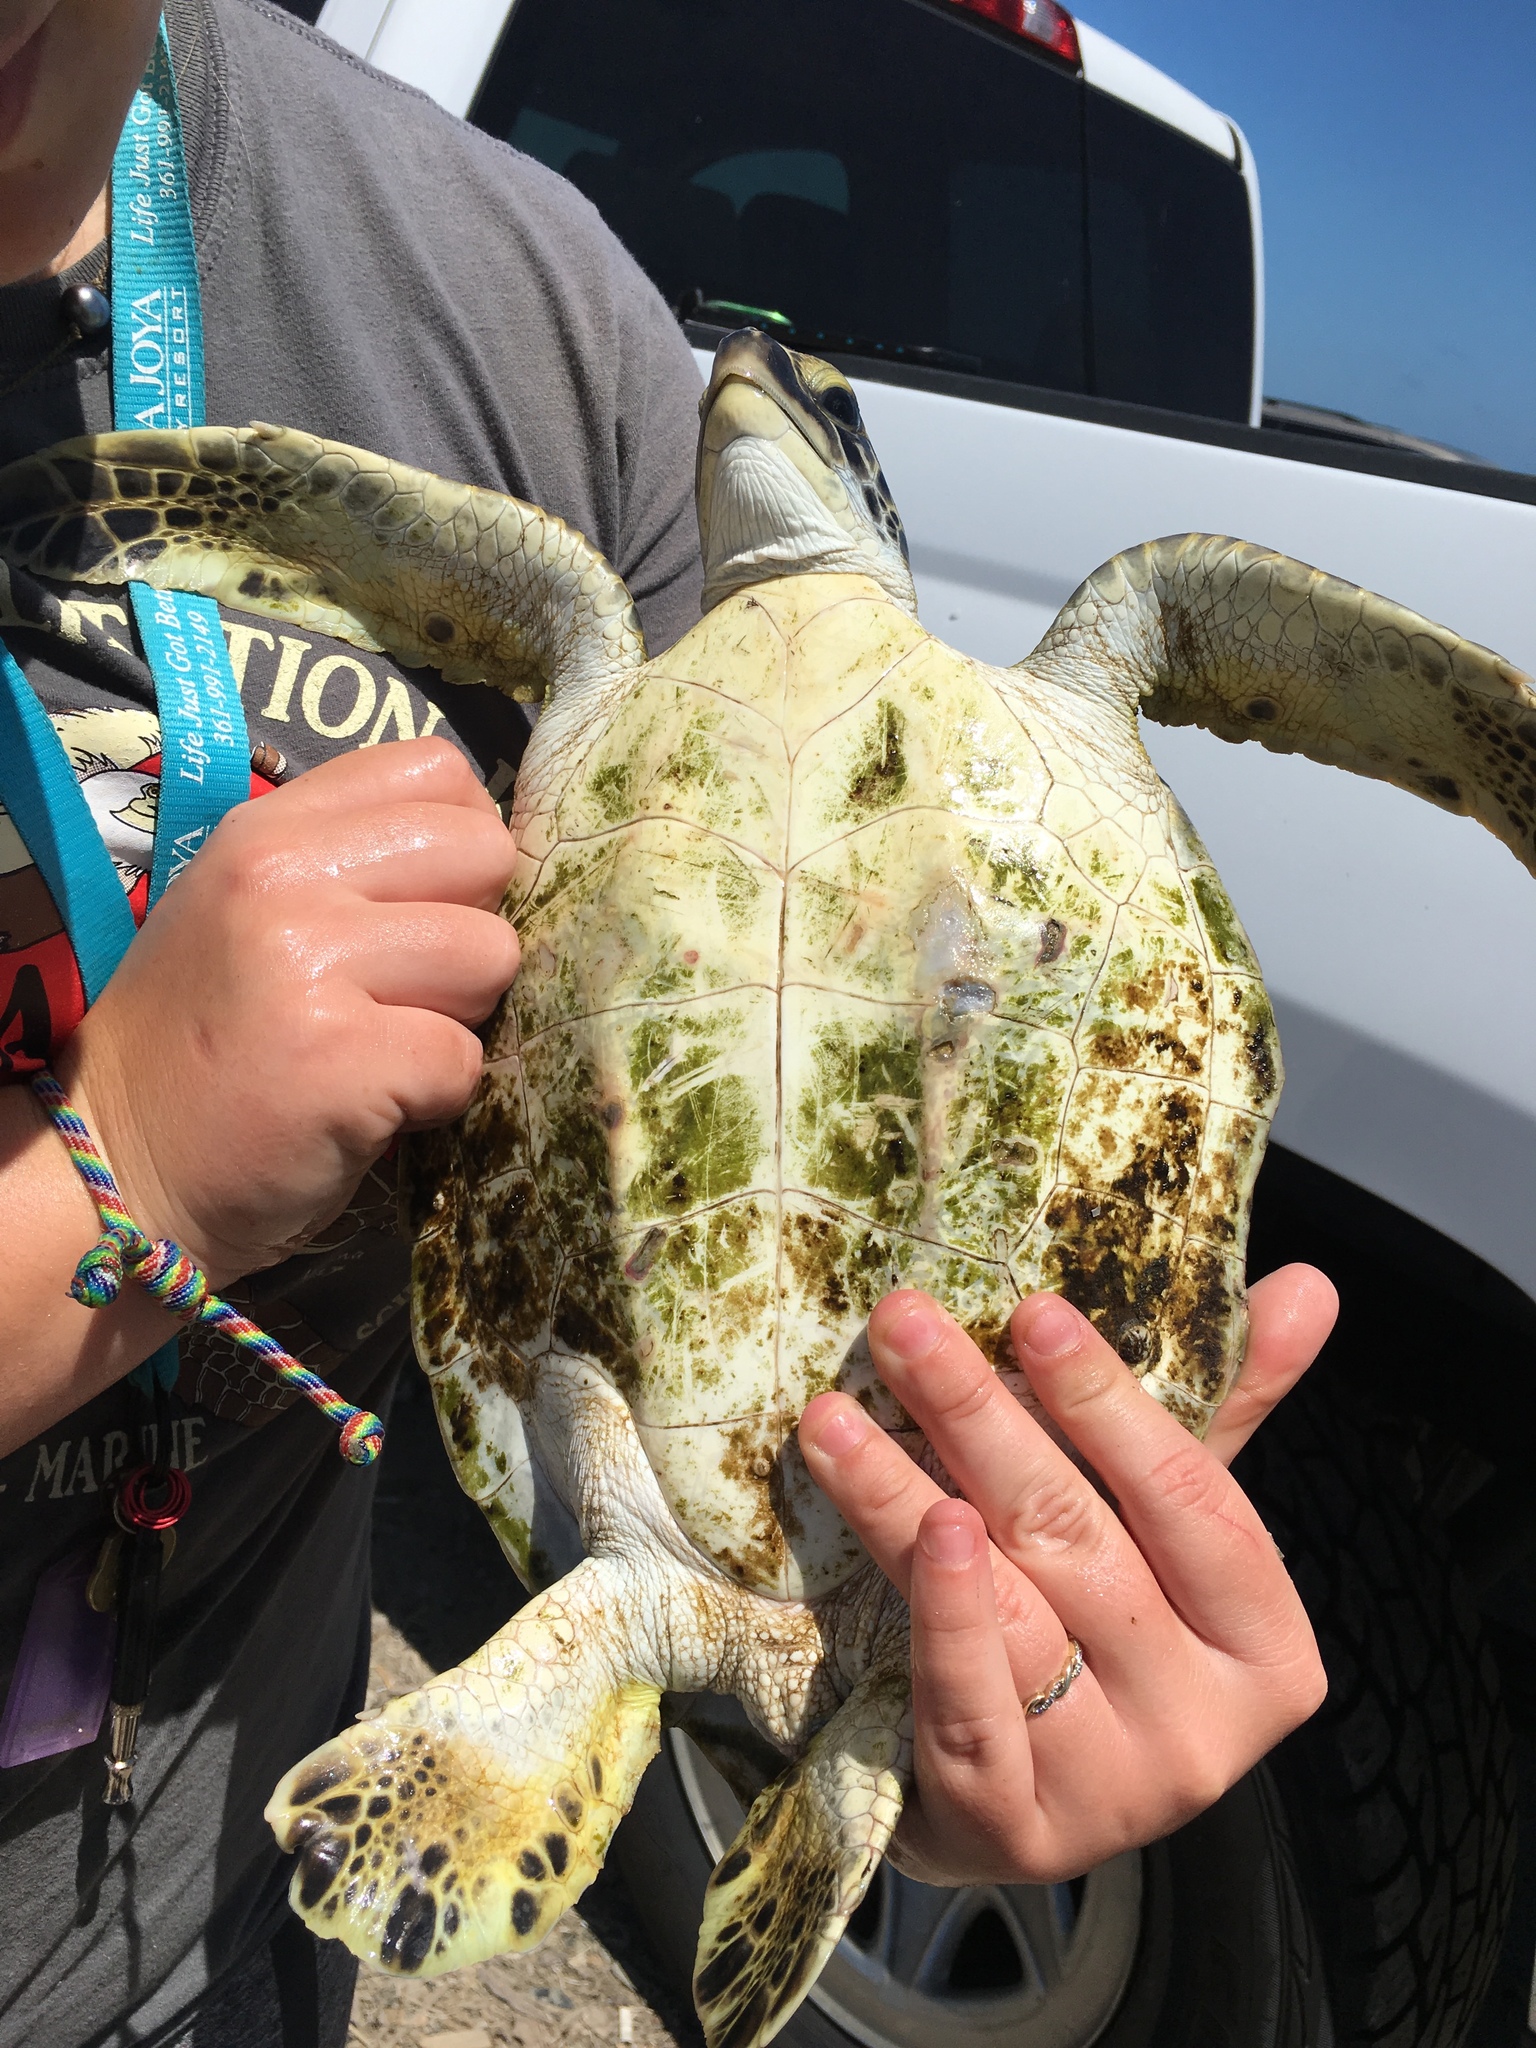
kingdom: Animalia
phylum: Chordata
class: Testudines
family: Cheloniidae
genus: Chelonia
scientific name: Chelonia mydas
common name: Green turtle
